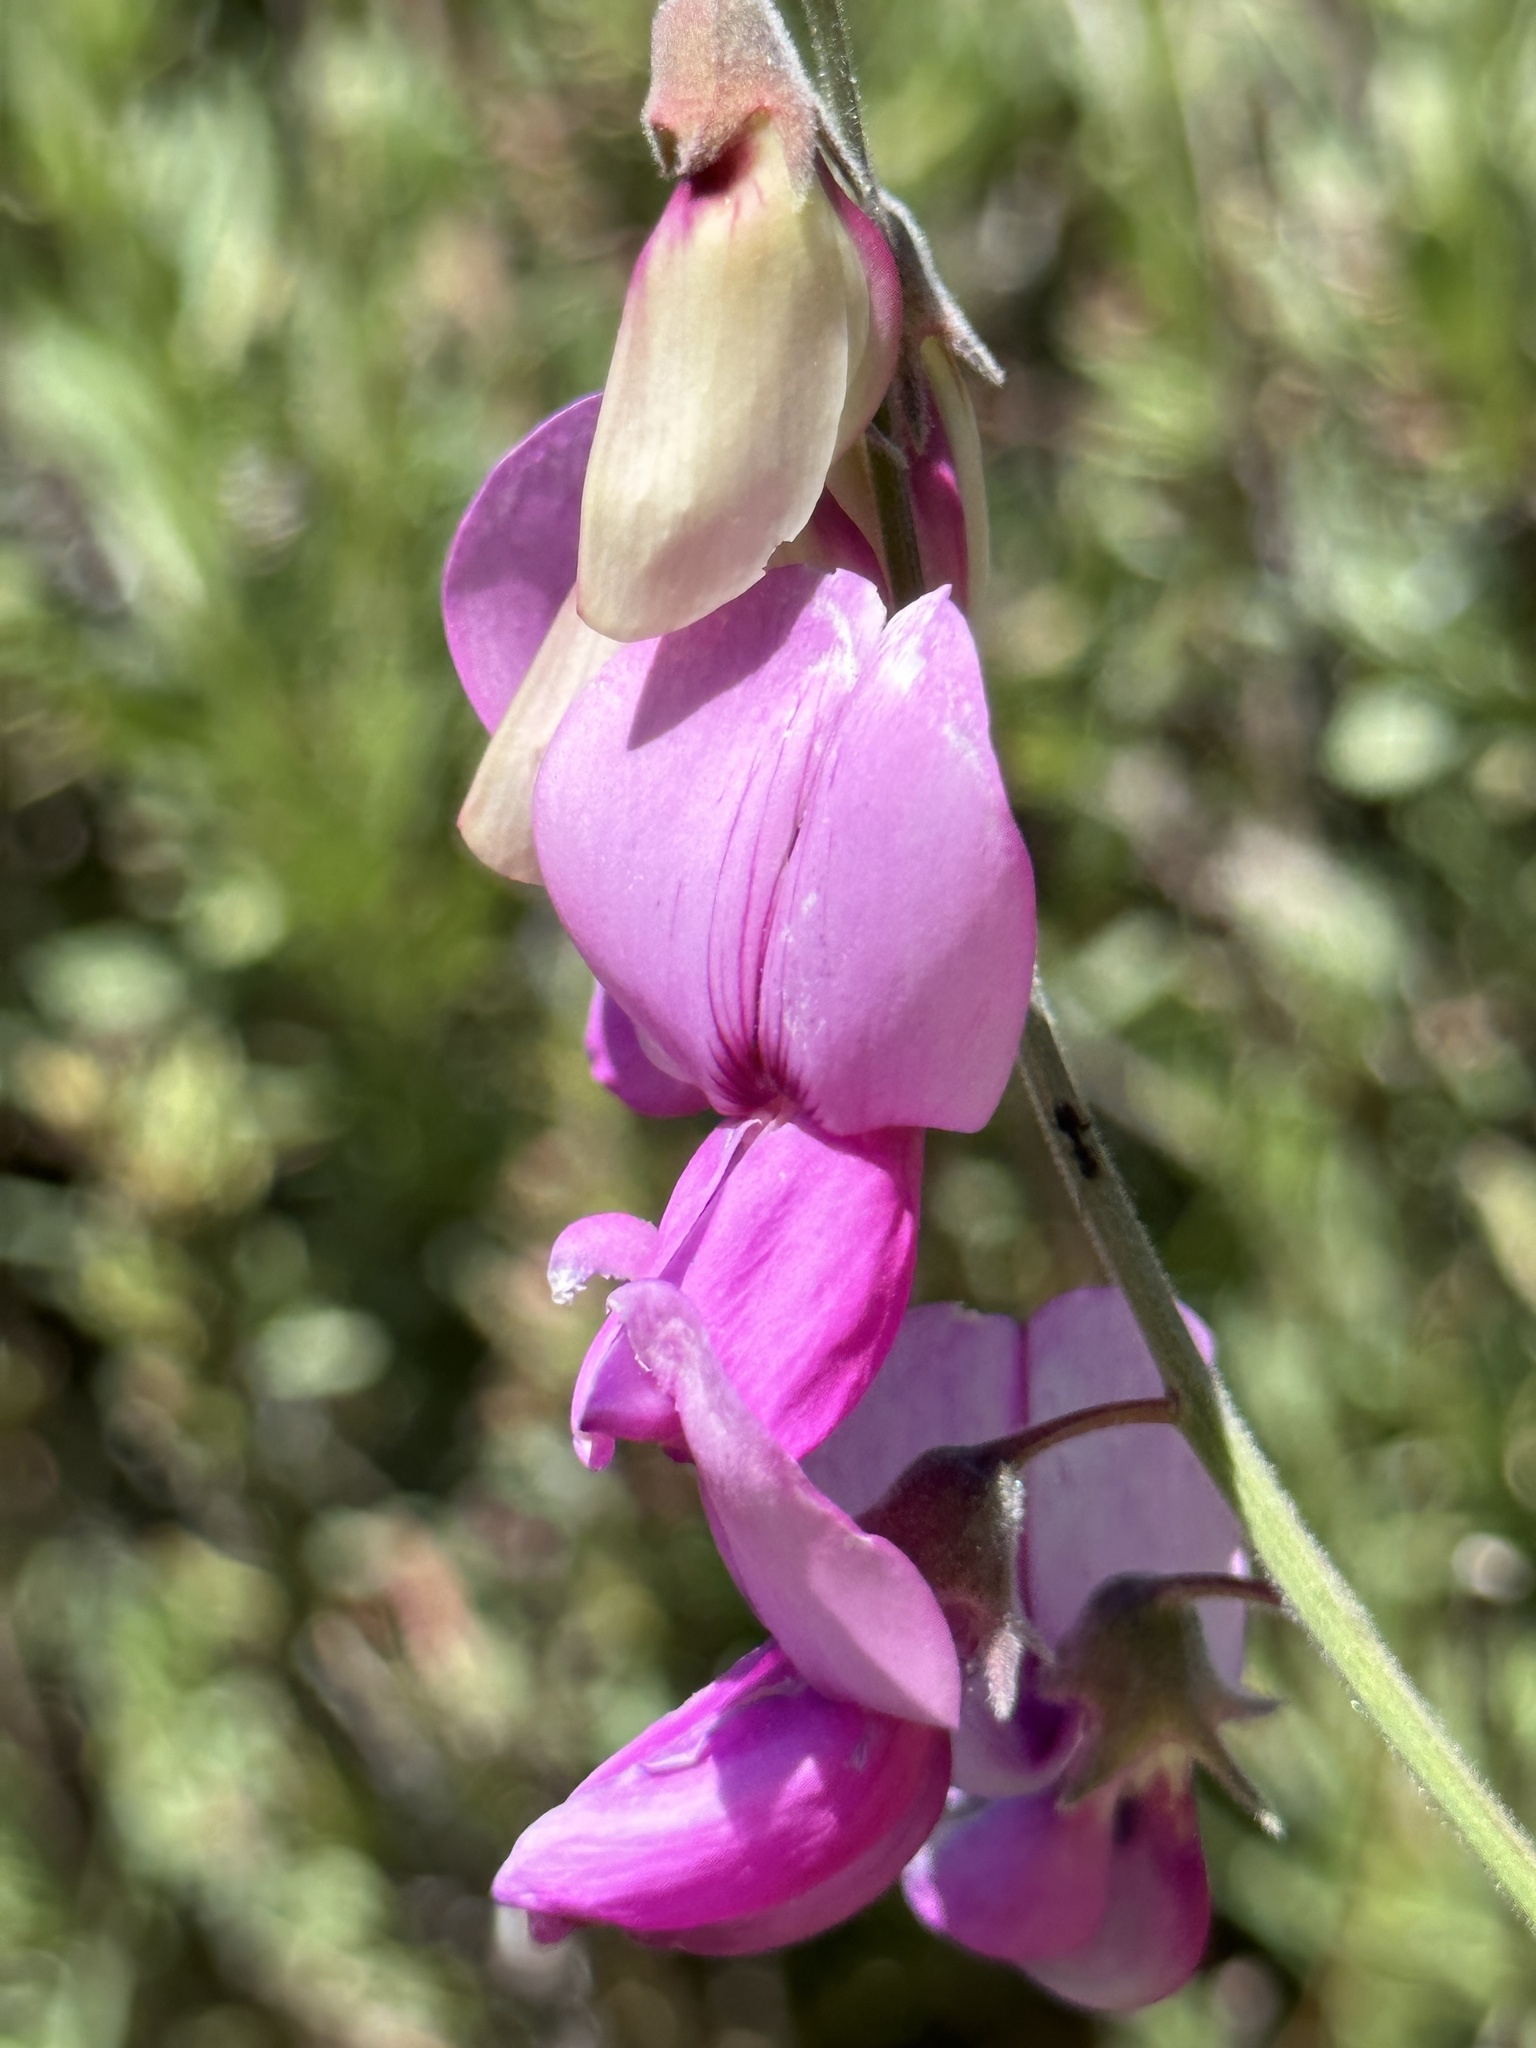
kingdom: Plantae
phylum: Tracheophyta
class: Magnoliopsida
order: Fabales
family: Fabaceae
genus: Lathyrus
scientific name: Lathyrus vestitus
